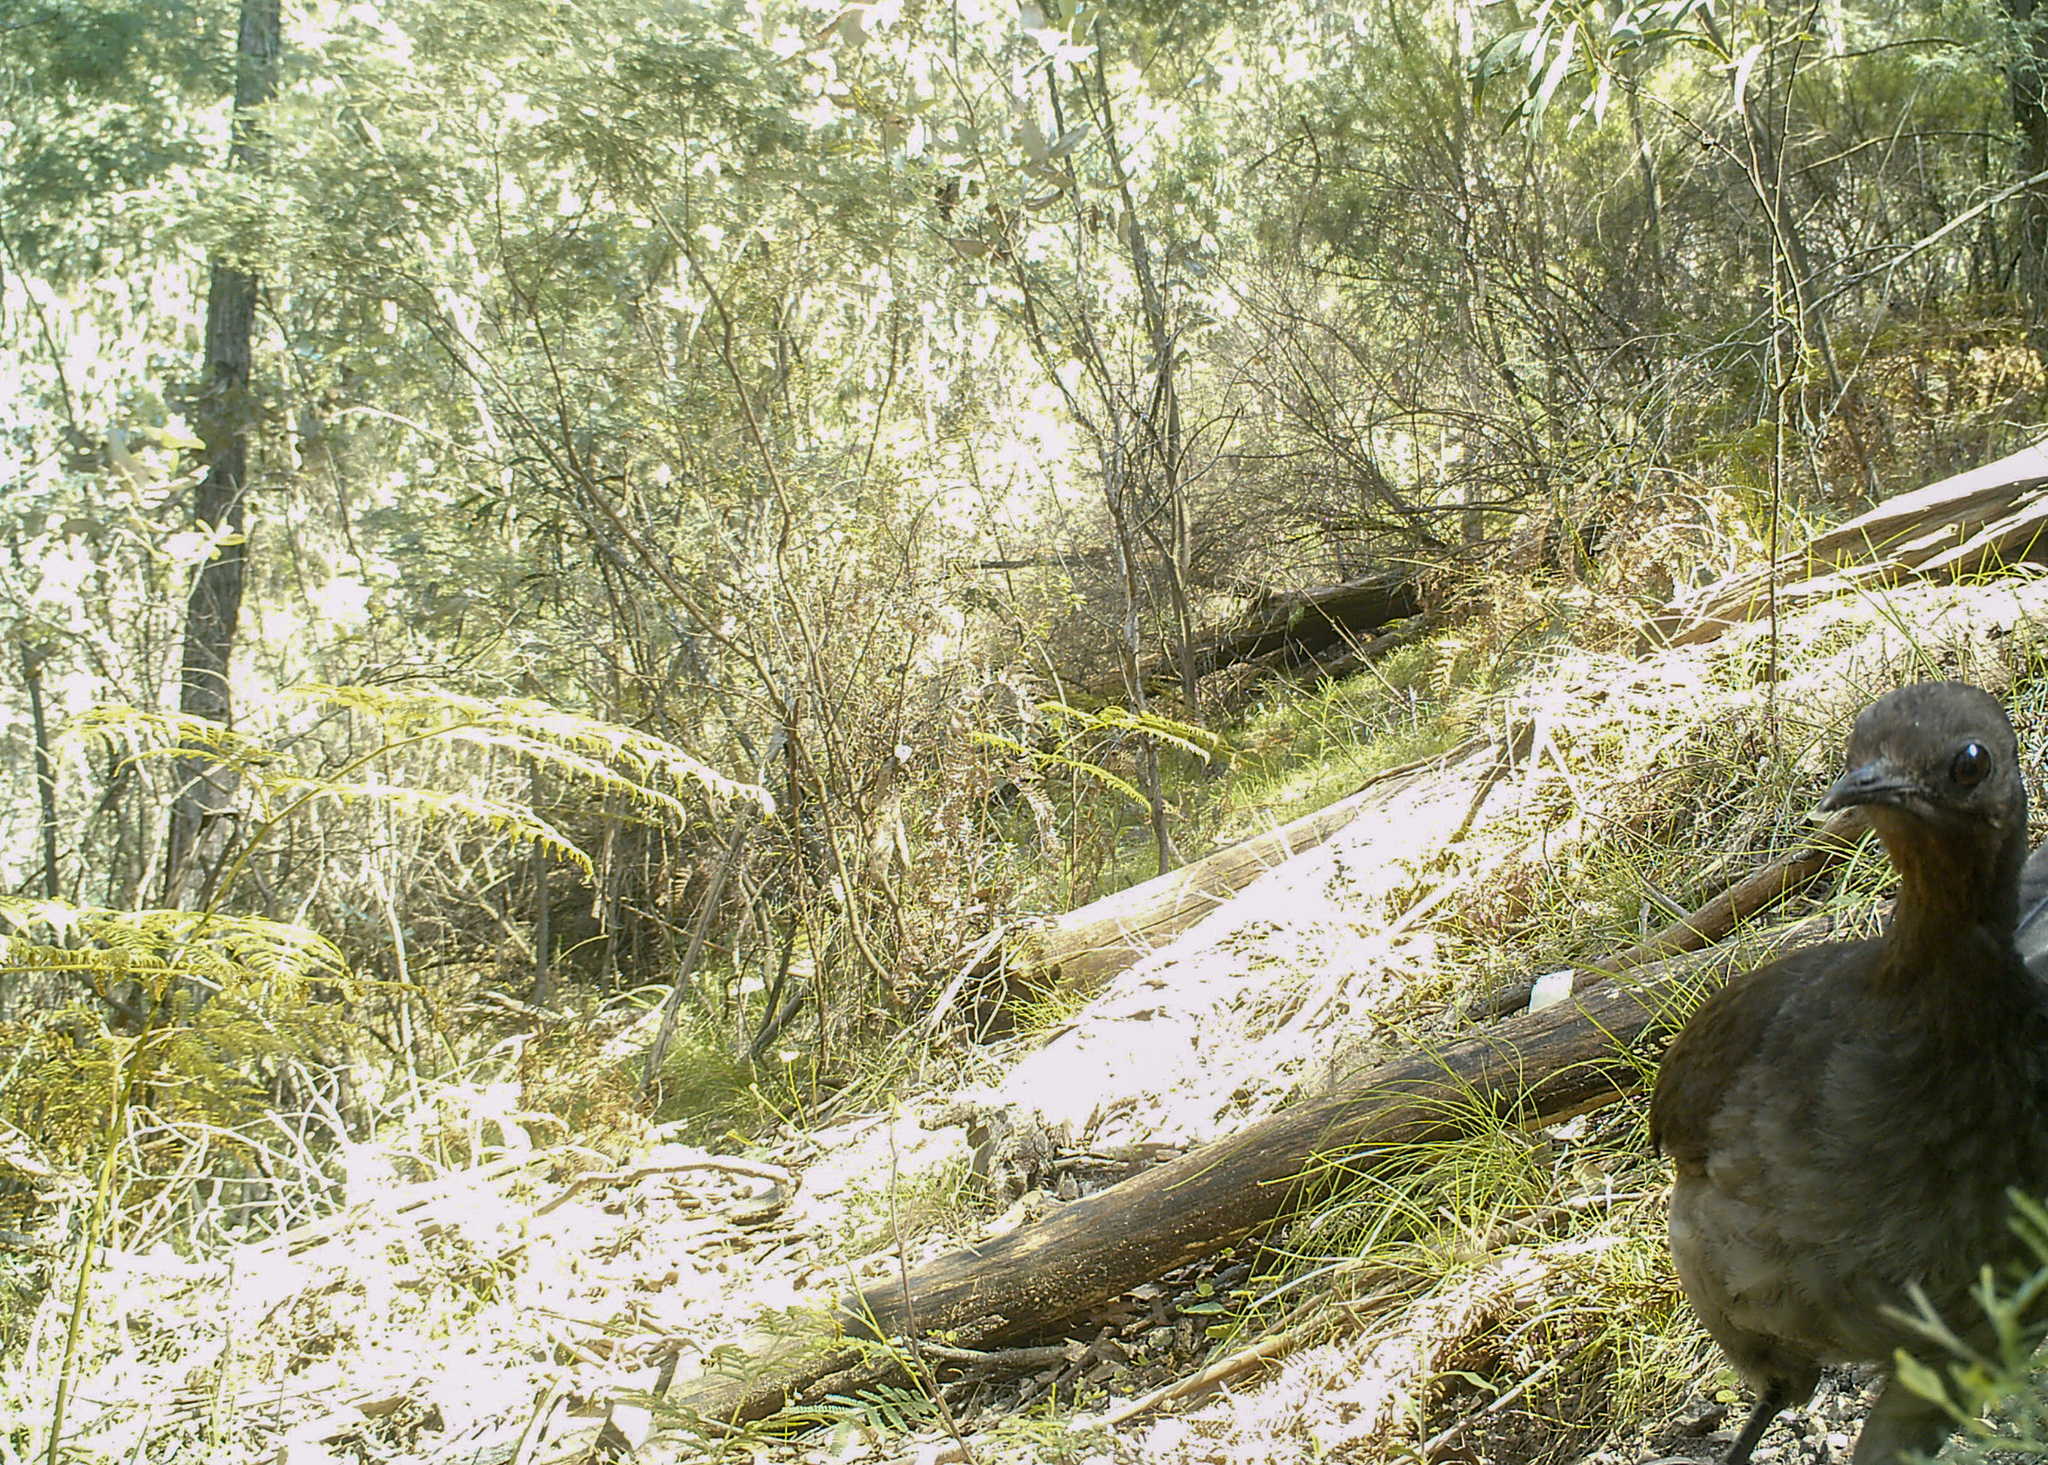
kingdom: Animalia
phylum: Chordata
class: Aves
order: Passeriformes
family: Menuridae
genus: Menura
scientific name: Menura novaehollandiae
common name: Superb lyrebird
